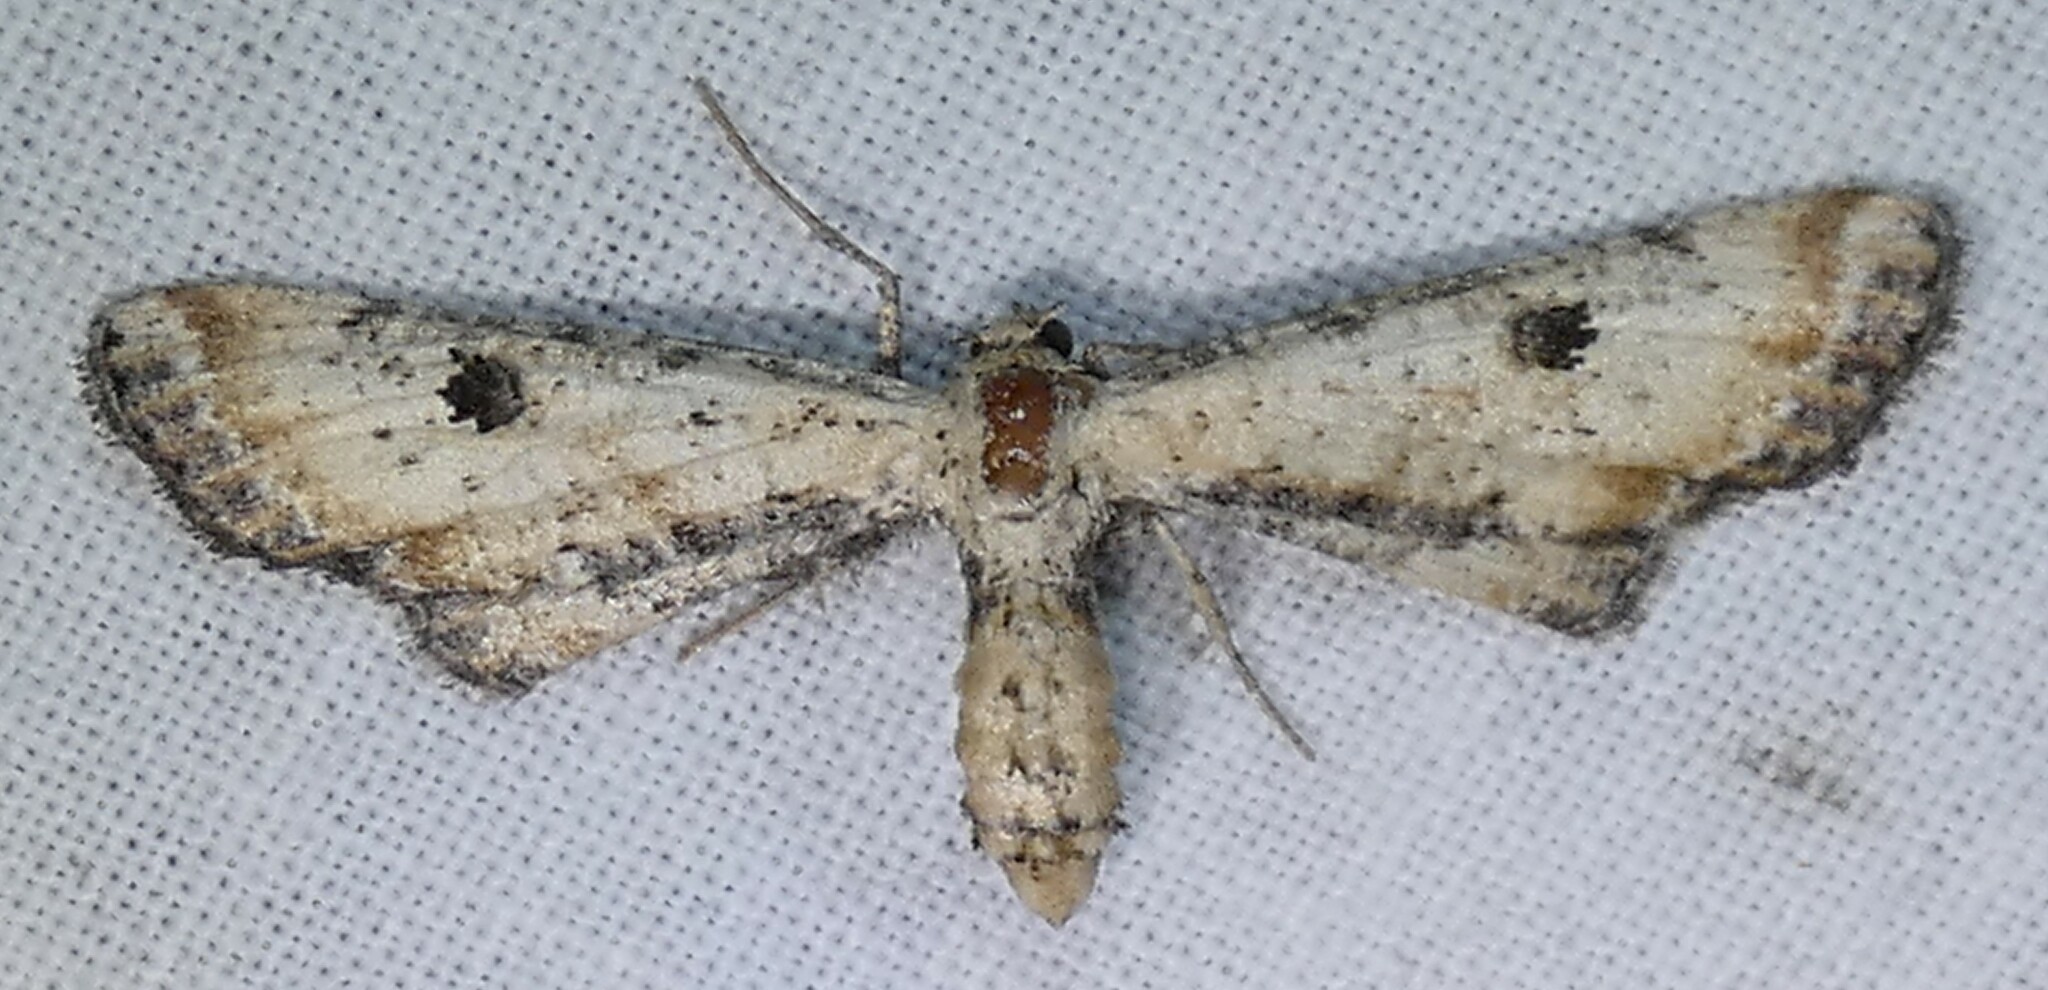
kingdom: Animalia
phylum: Arthropoda
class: Insecta
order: Lepidoptera
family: Geometridae
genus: Tornos
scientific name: Tornos scolopacinaria
